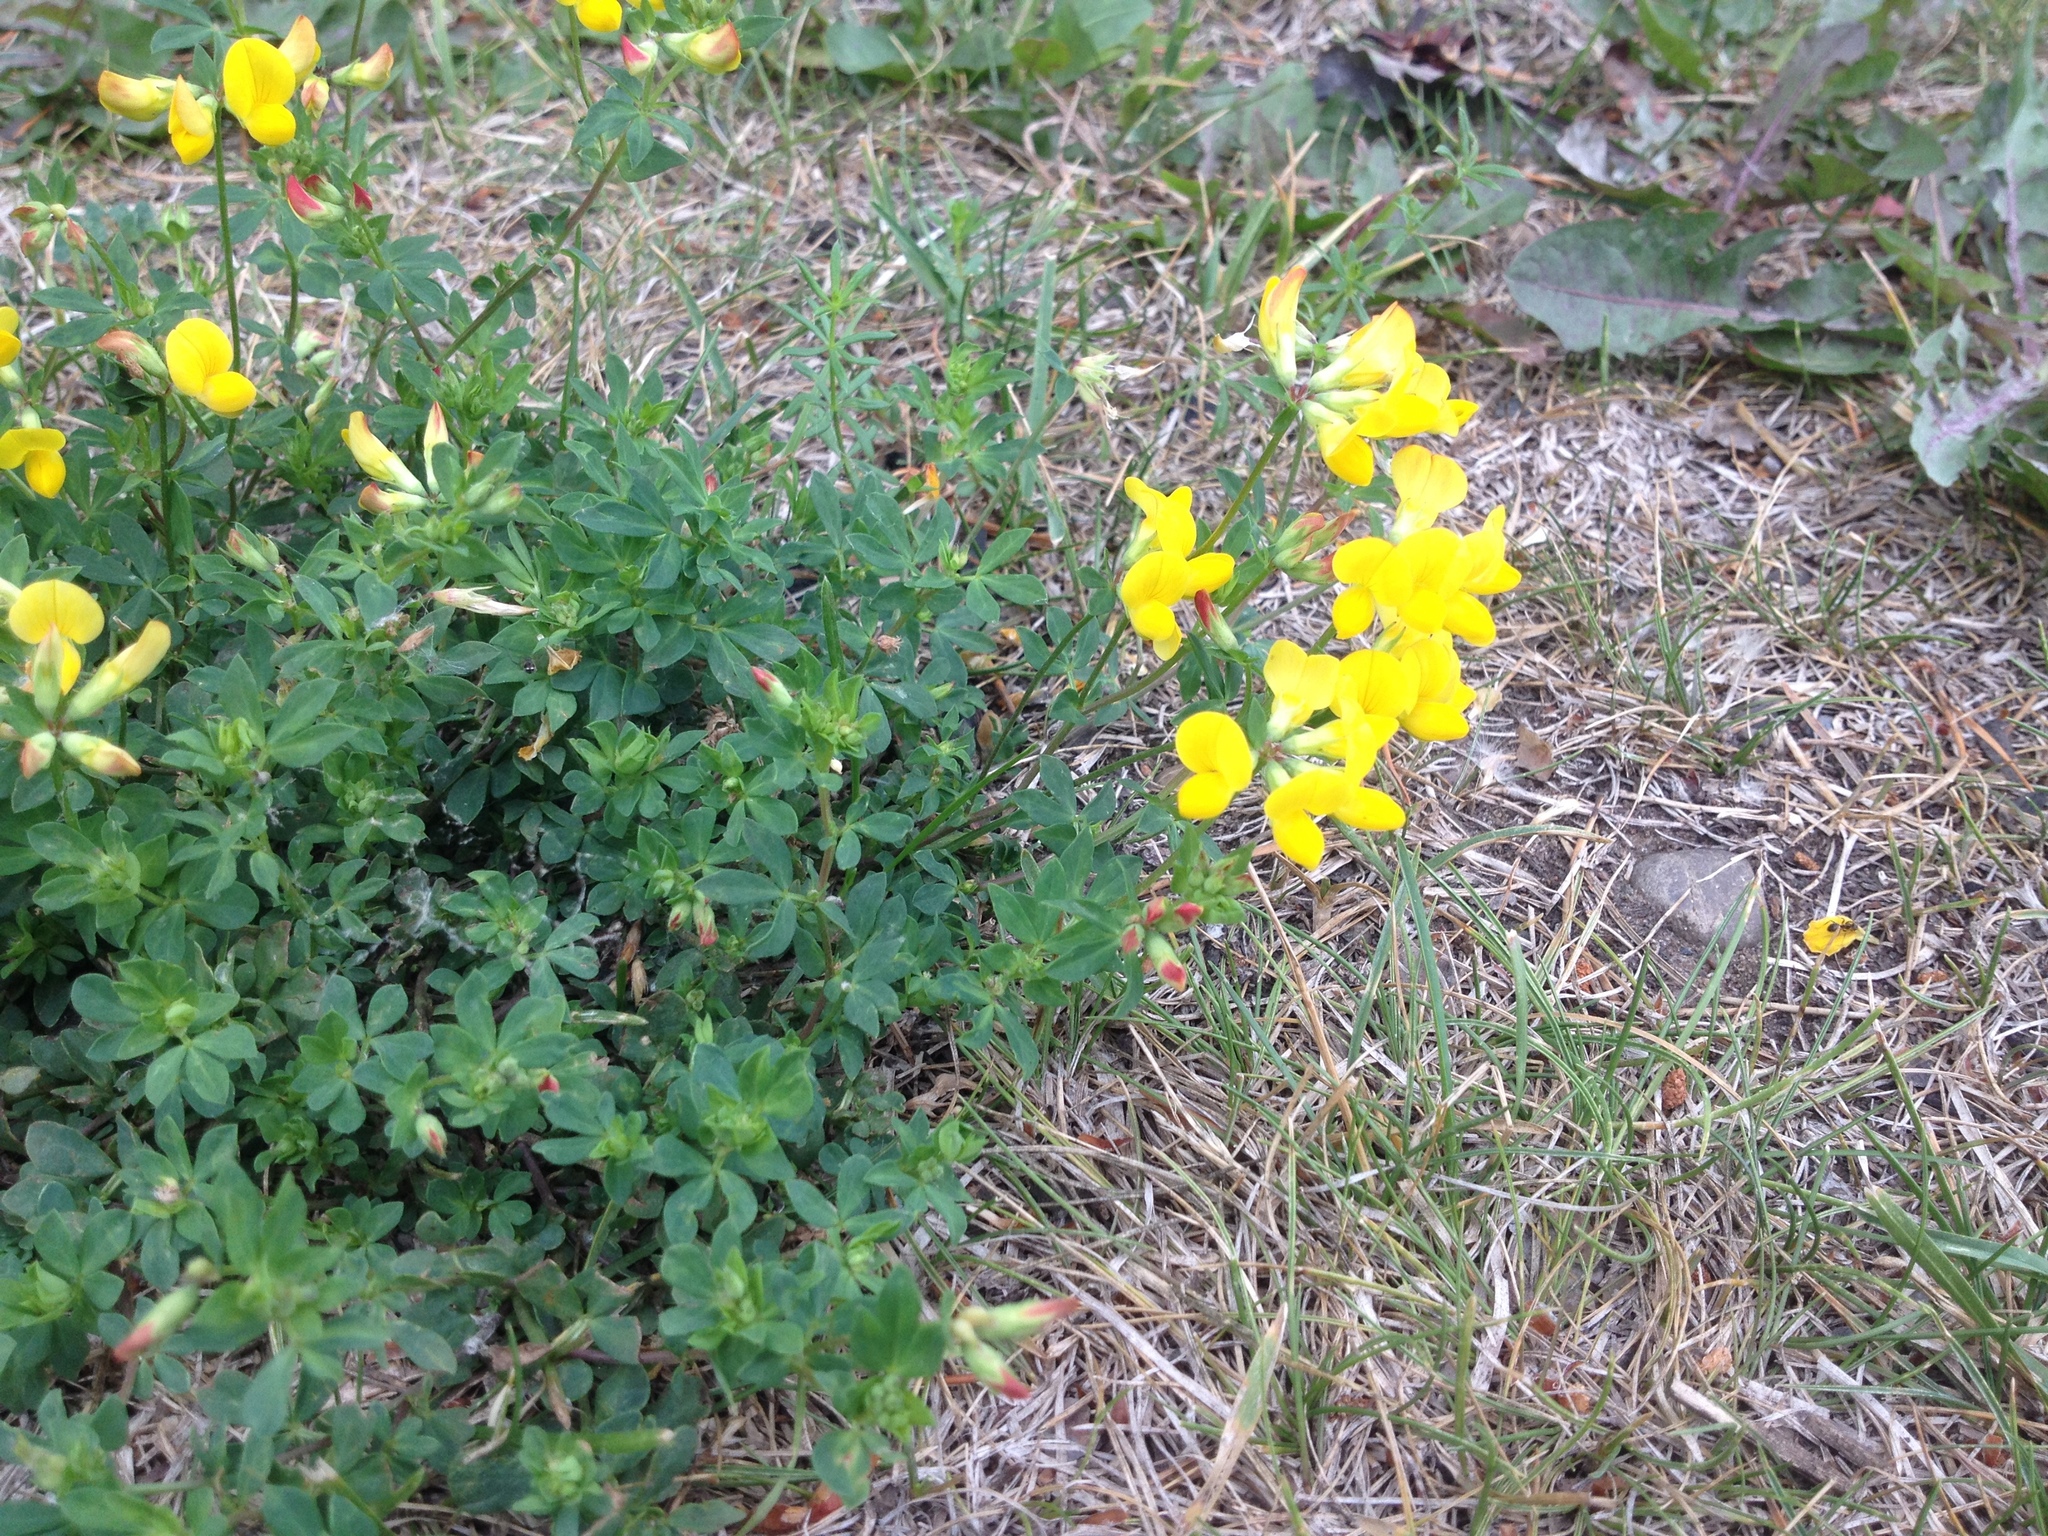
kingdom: Plantae
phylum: Tracheophyta
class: Magnoliopsida
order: Fabales
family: Fabaceae
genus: Lotus
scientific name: Lotus corniculatus
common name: Common bird's-foot-trefoil
